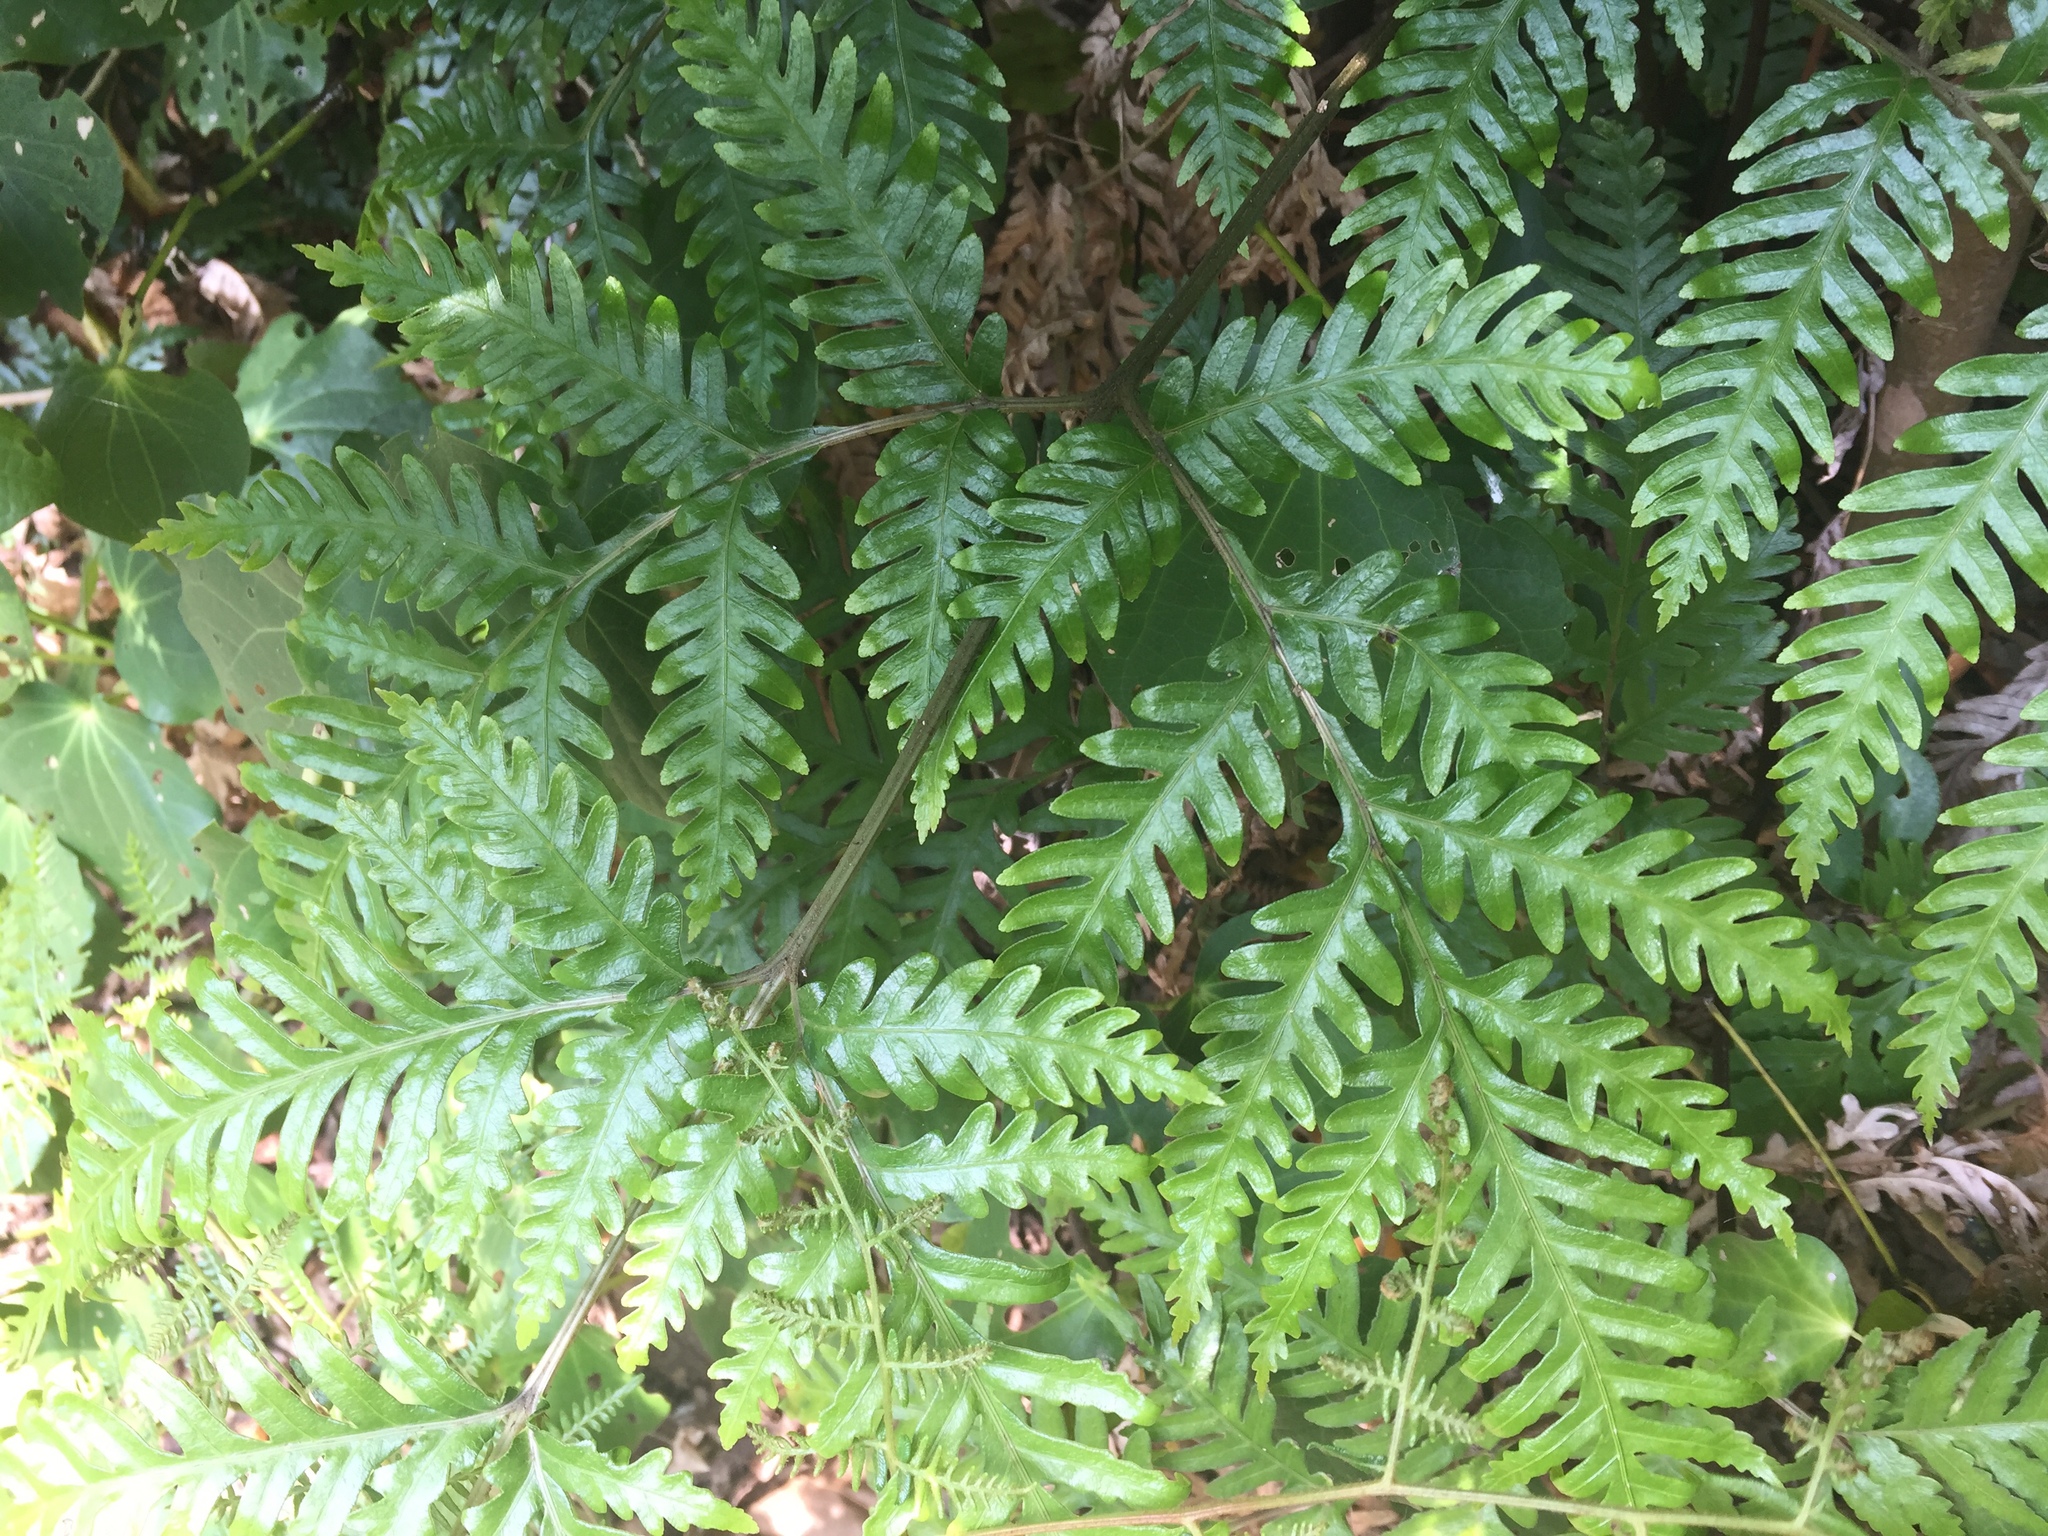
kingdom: Plantae
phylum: Tracheophyta
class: Polypodiopsida
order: Polypodiales
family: Pteridaceae
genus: Pteris
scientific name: Pteris carsei
